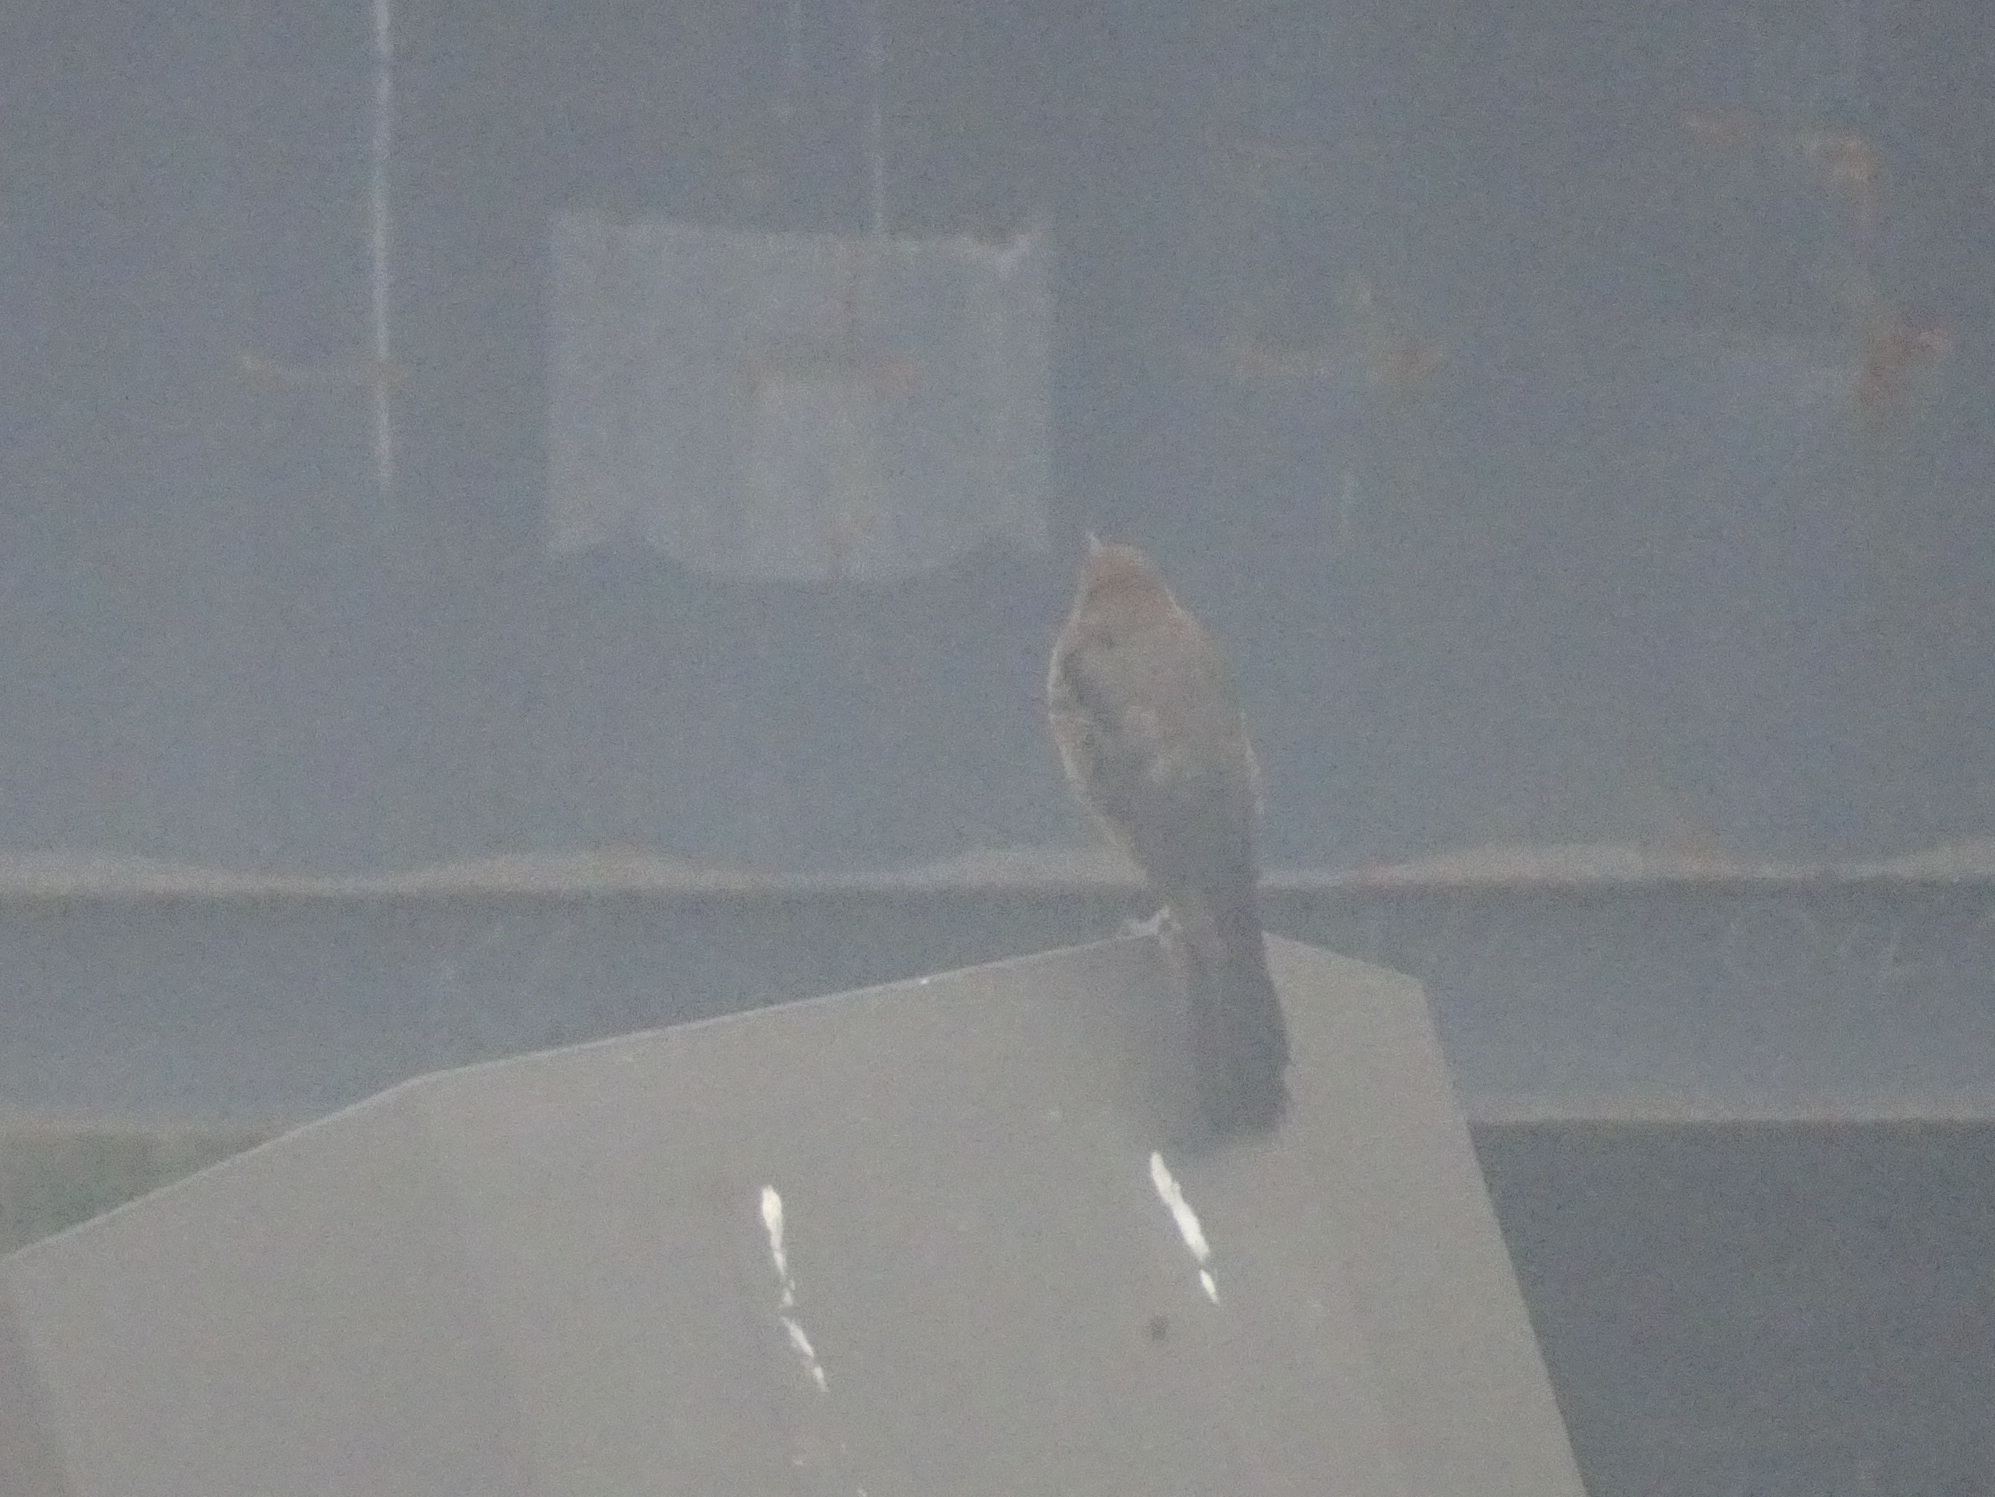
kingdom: Animalia
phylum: Chordata
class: Aves
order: Passeriformes
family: Icteridae
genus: Quiscalus
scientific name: Quiscalus major
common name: Boat-tailed grackle
